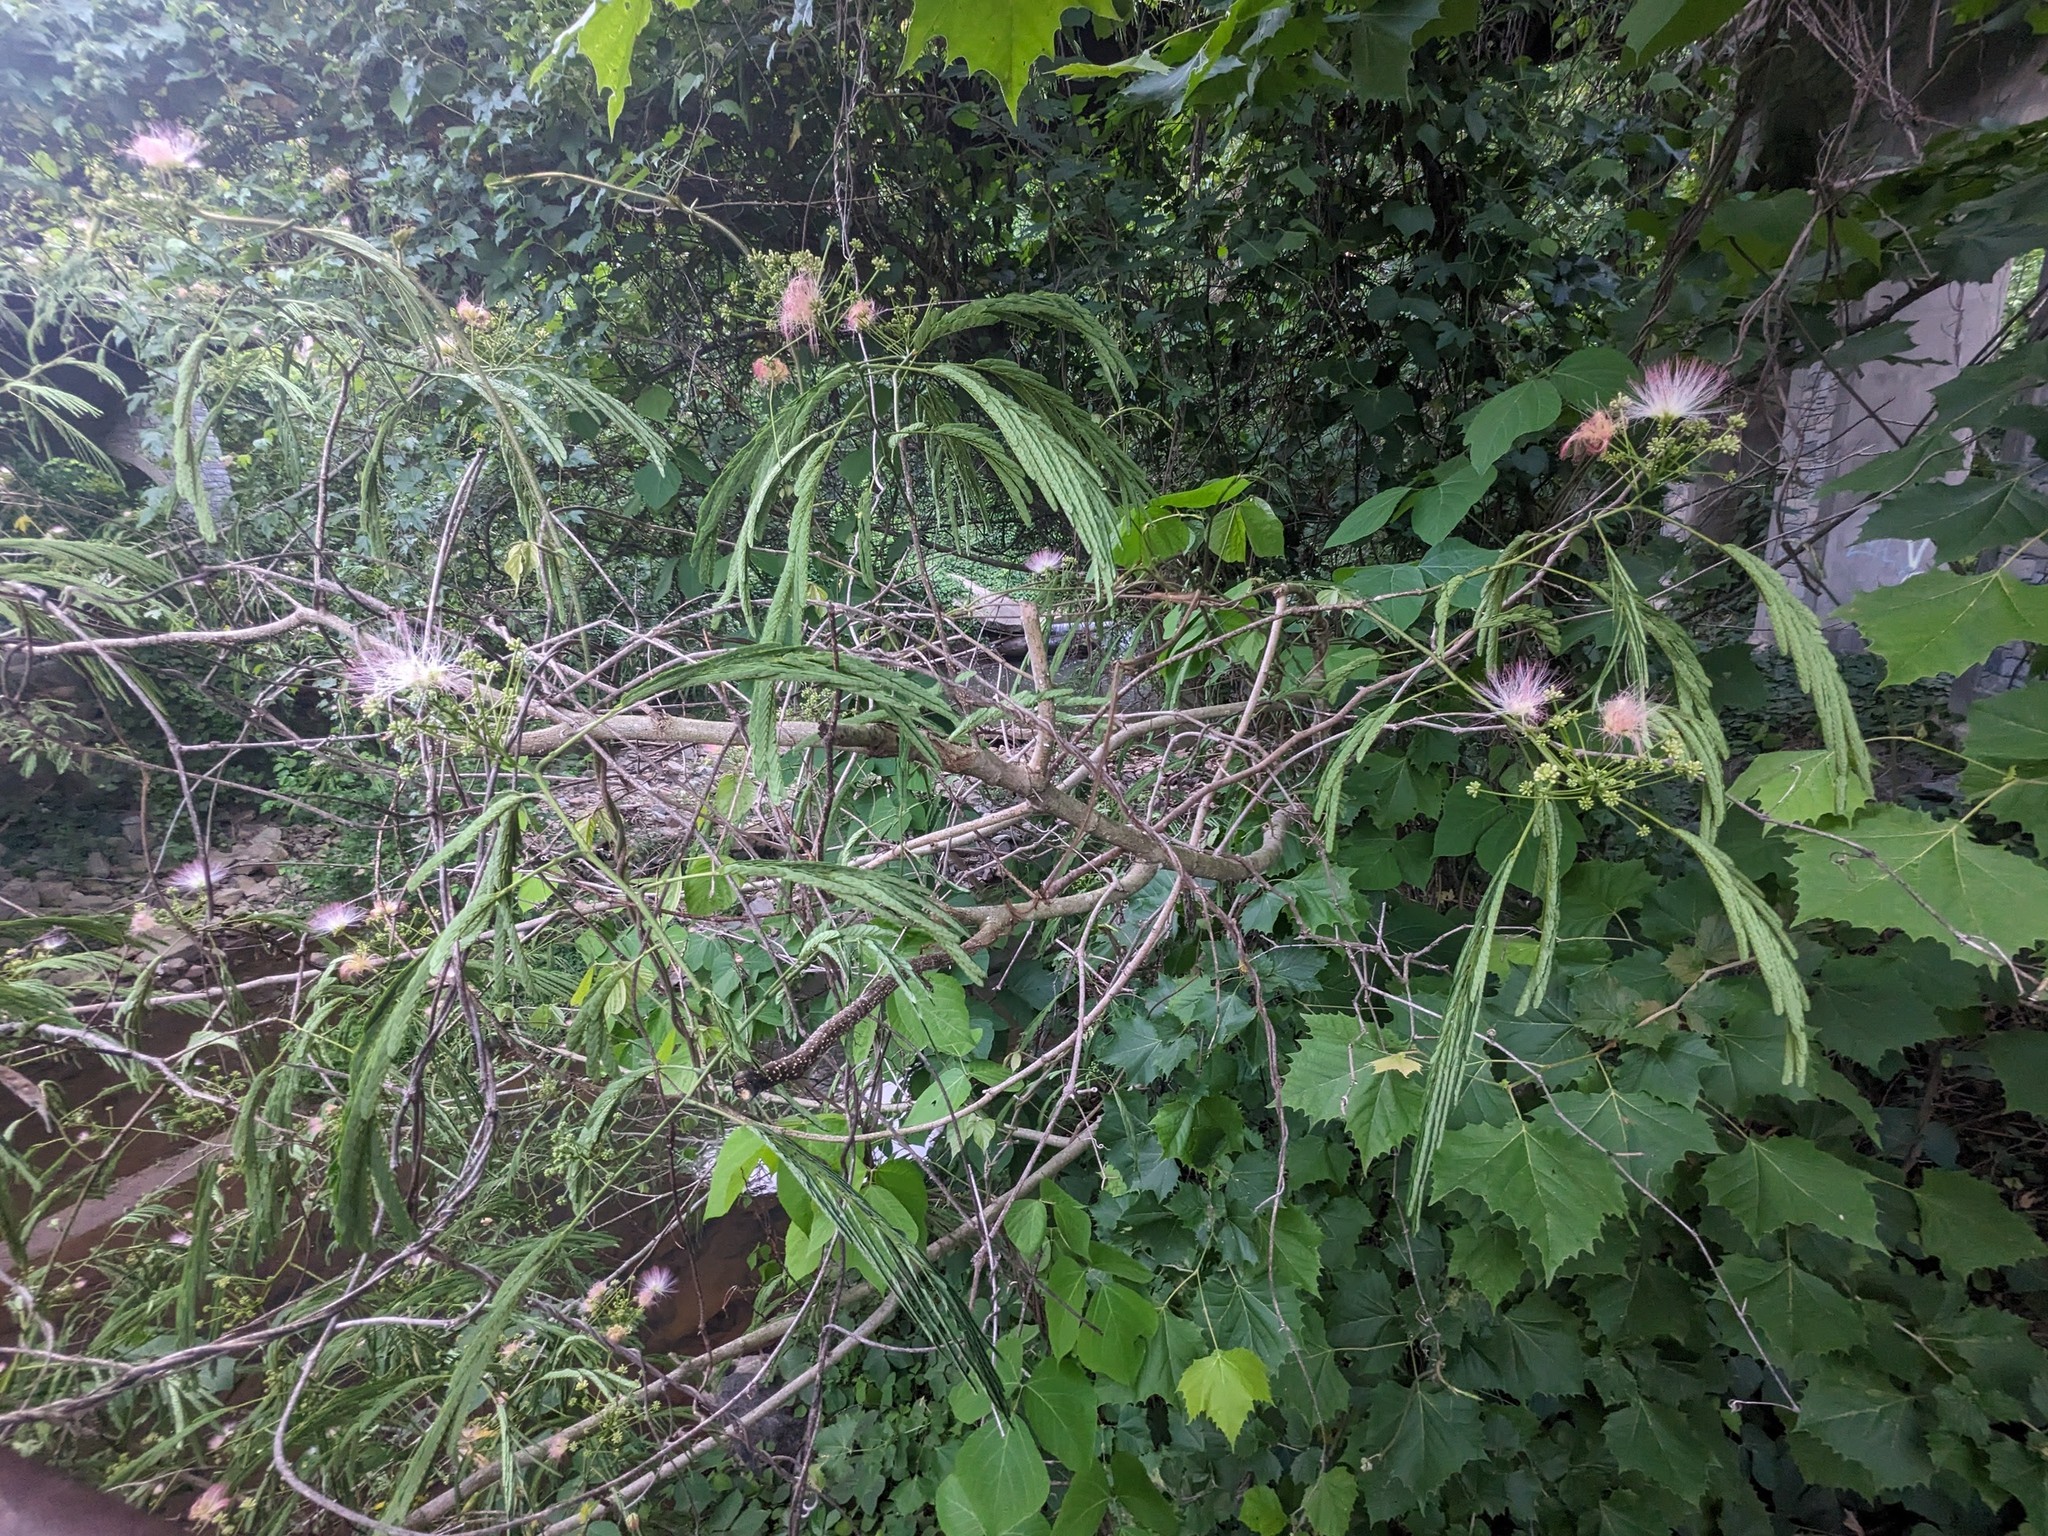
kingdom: Plantae
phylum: Tracheophyta
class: Magnoliopsida
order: Fabales
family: Fabaceae
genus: Albizia
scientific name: Albizia julibrissin
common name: Silktree
